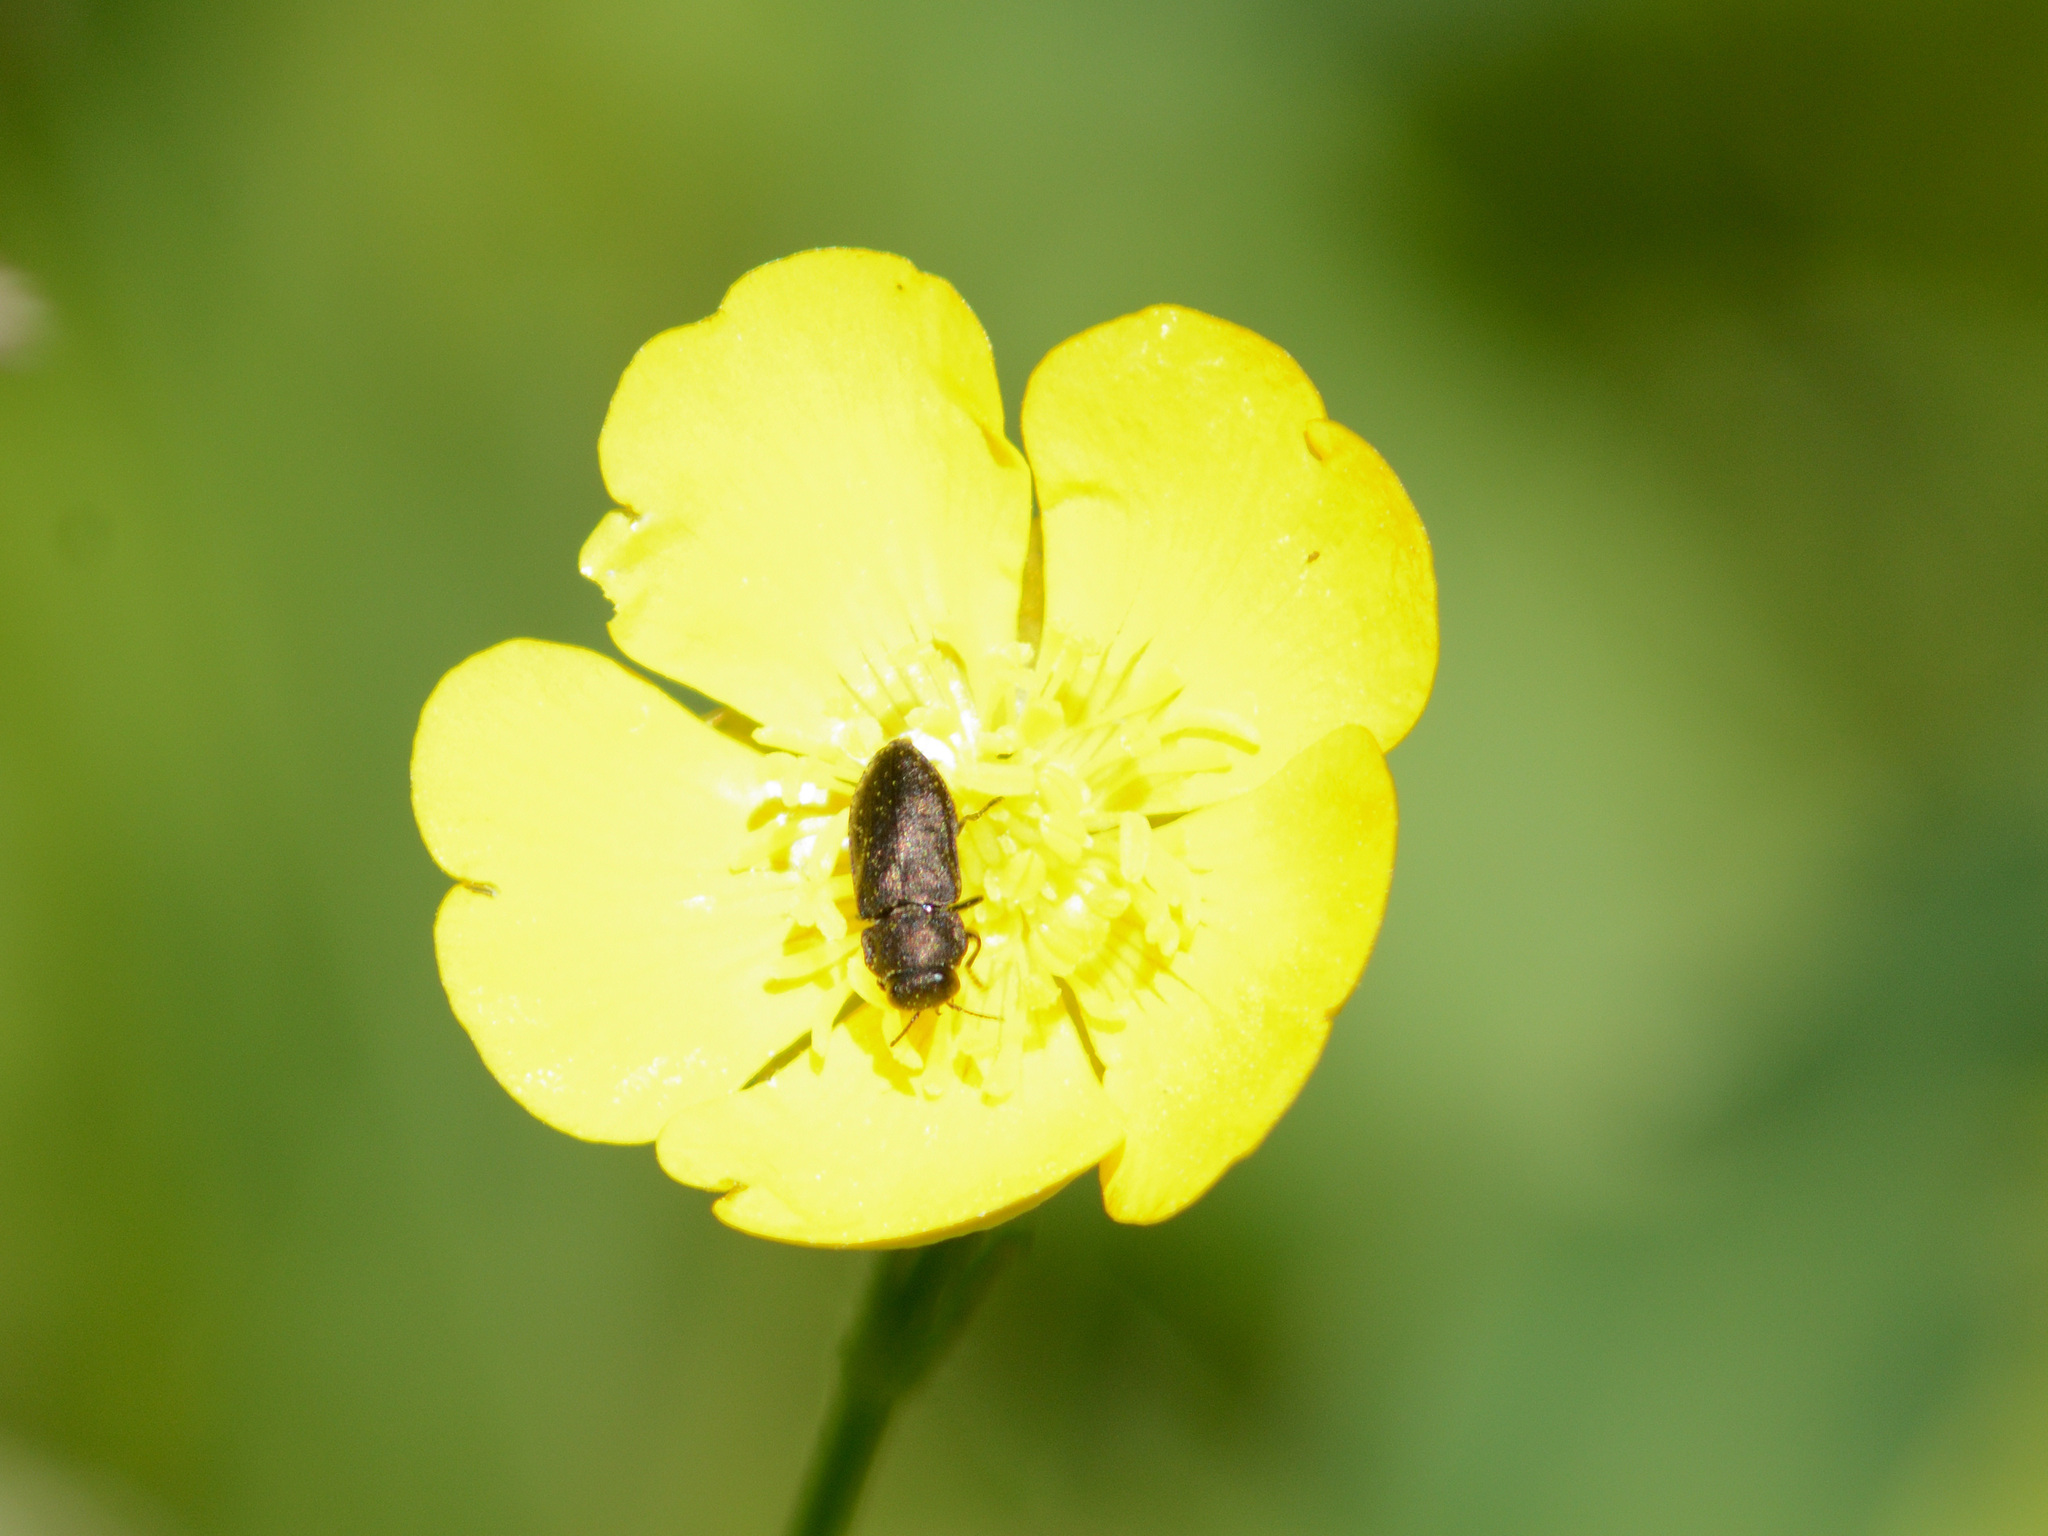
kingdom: Animalia
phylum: Arthropoda
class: Insecta
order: Coleoptera
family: Buprestidae
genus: Anthaxia
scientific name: Anthaxia quadripunctata
